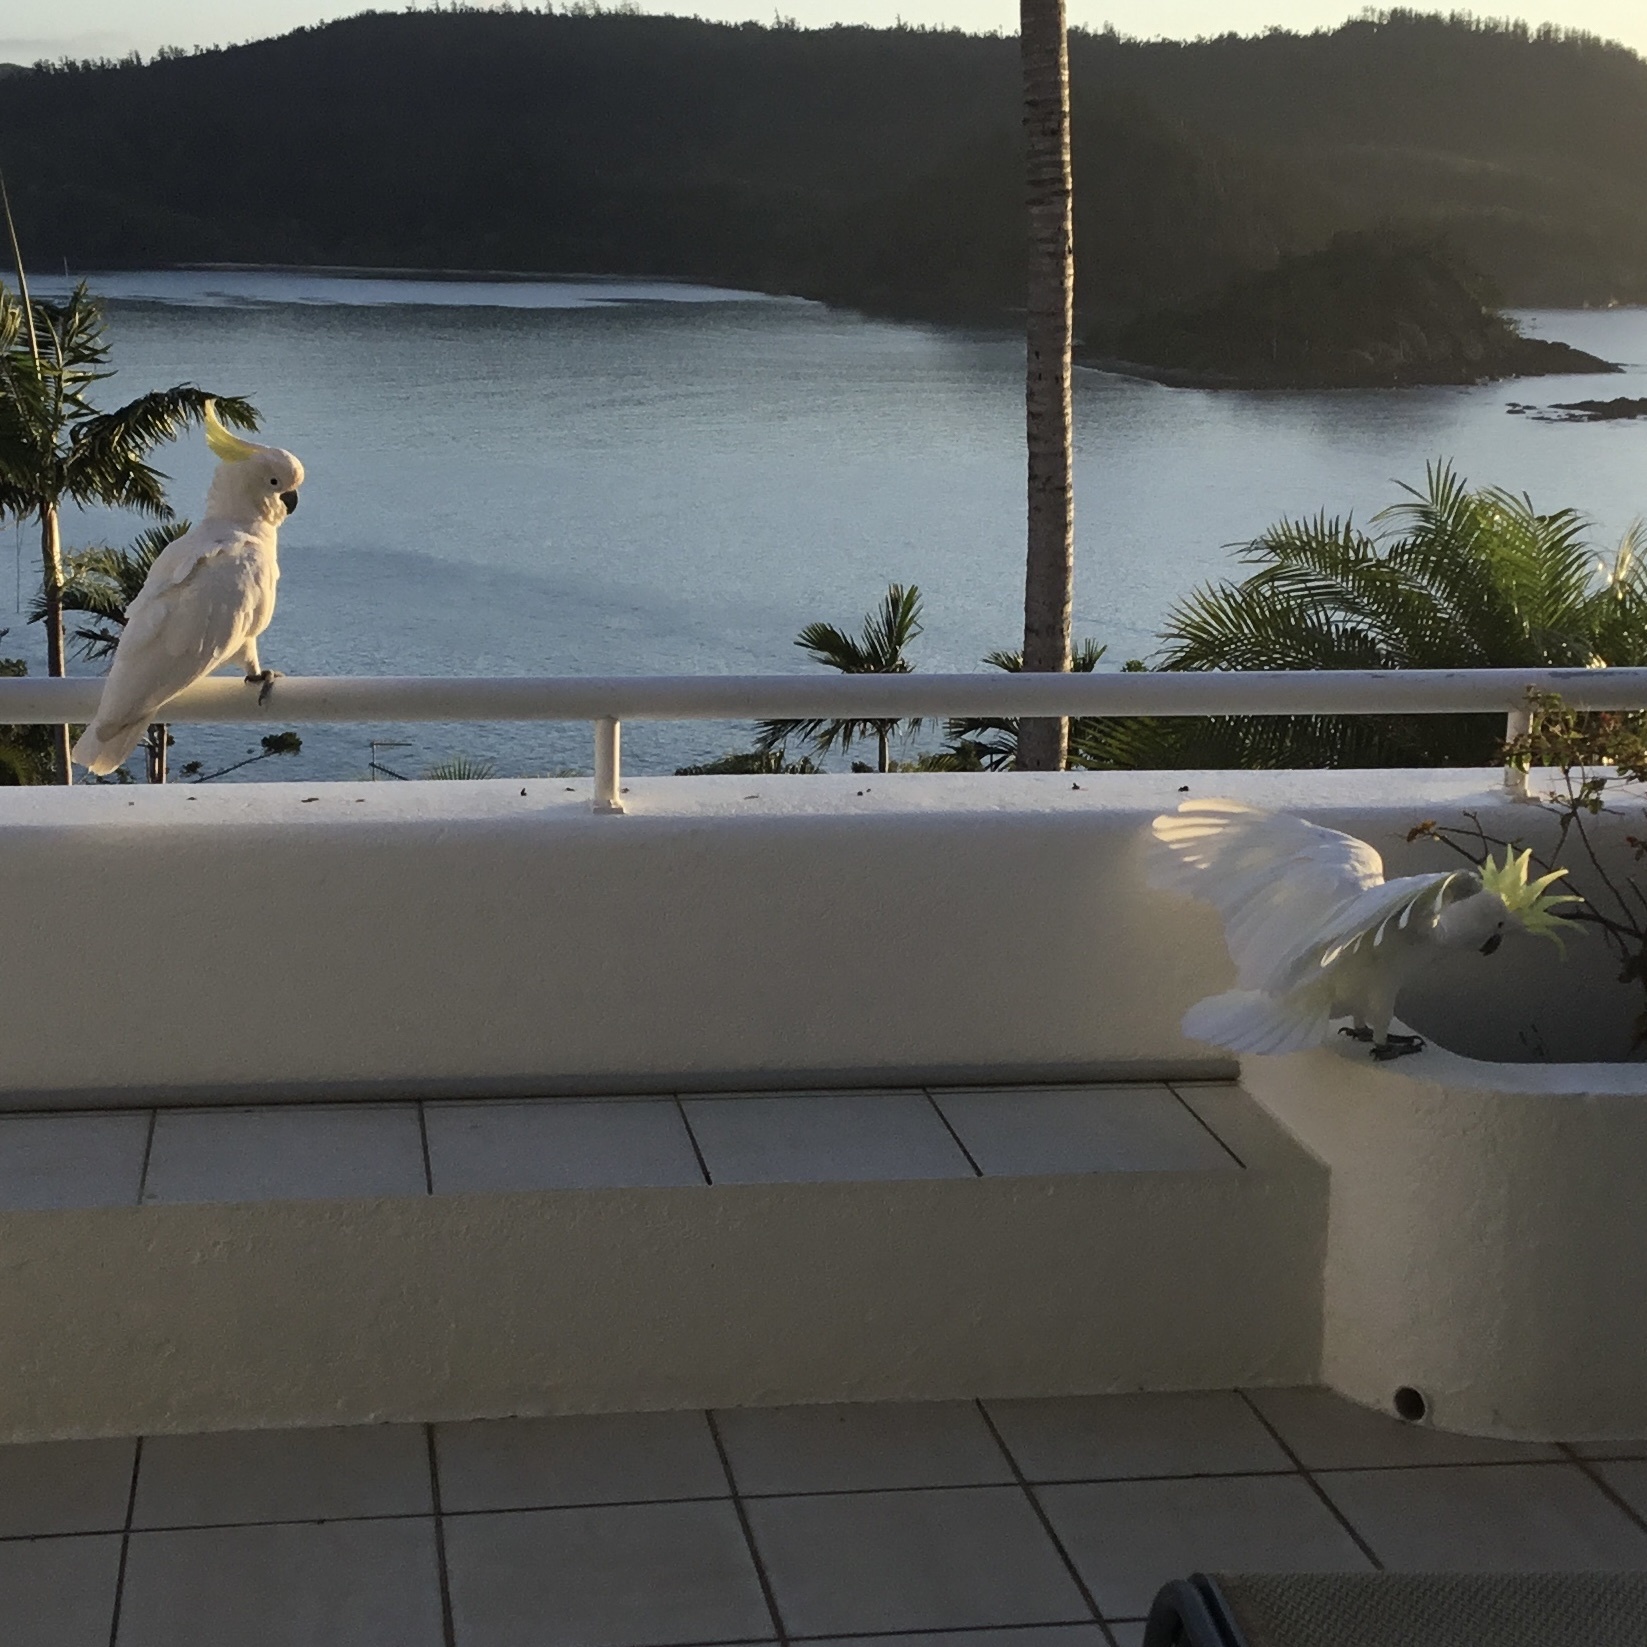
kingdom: Animalia
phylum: Chordata
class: Aves
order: Psittaciformes
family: Psittacidae
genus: Cacatua
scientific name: Cacatua galerita
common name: Sulphur-crested cockatoo
